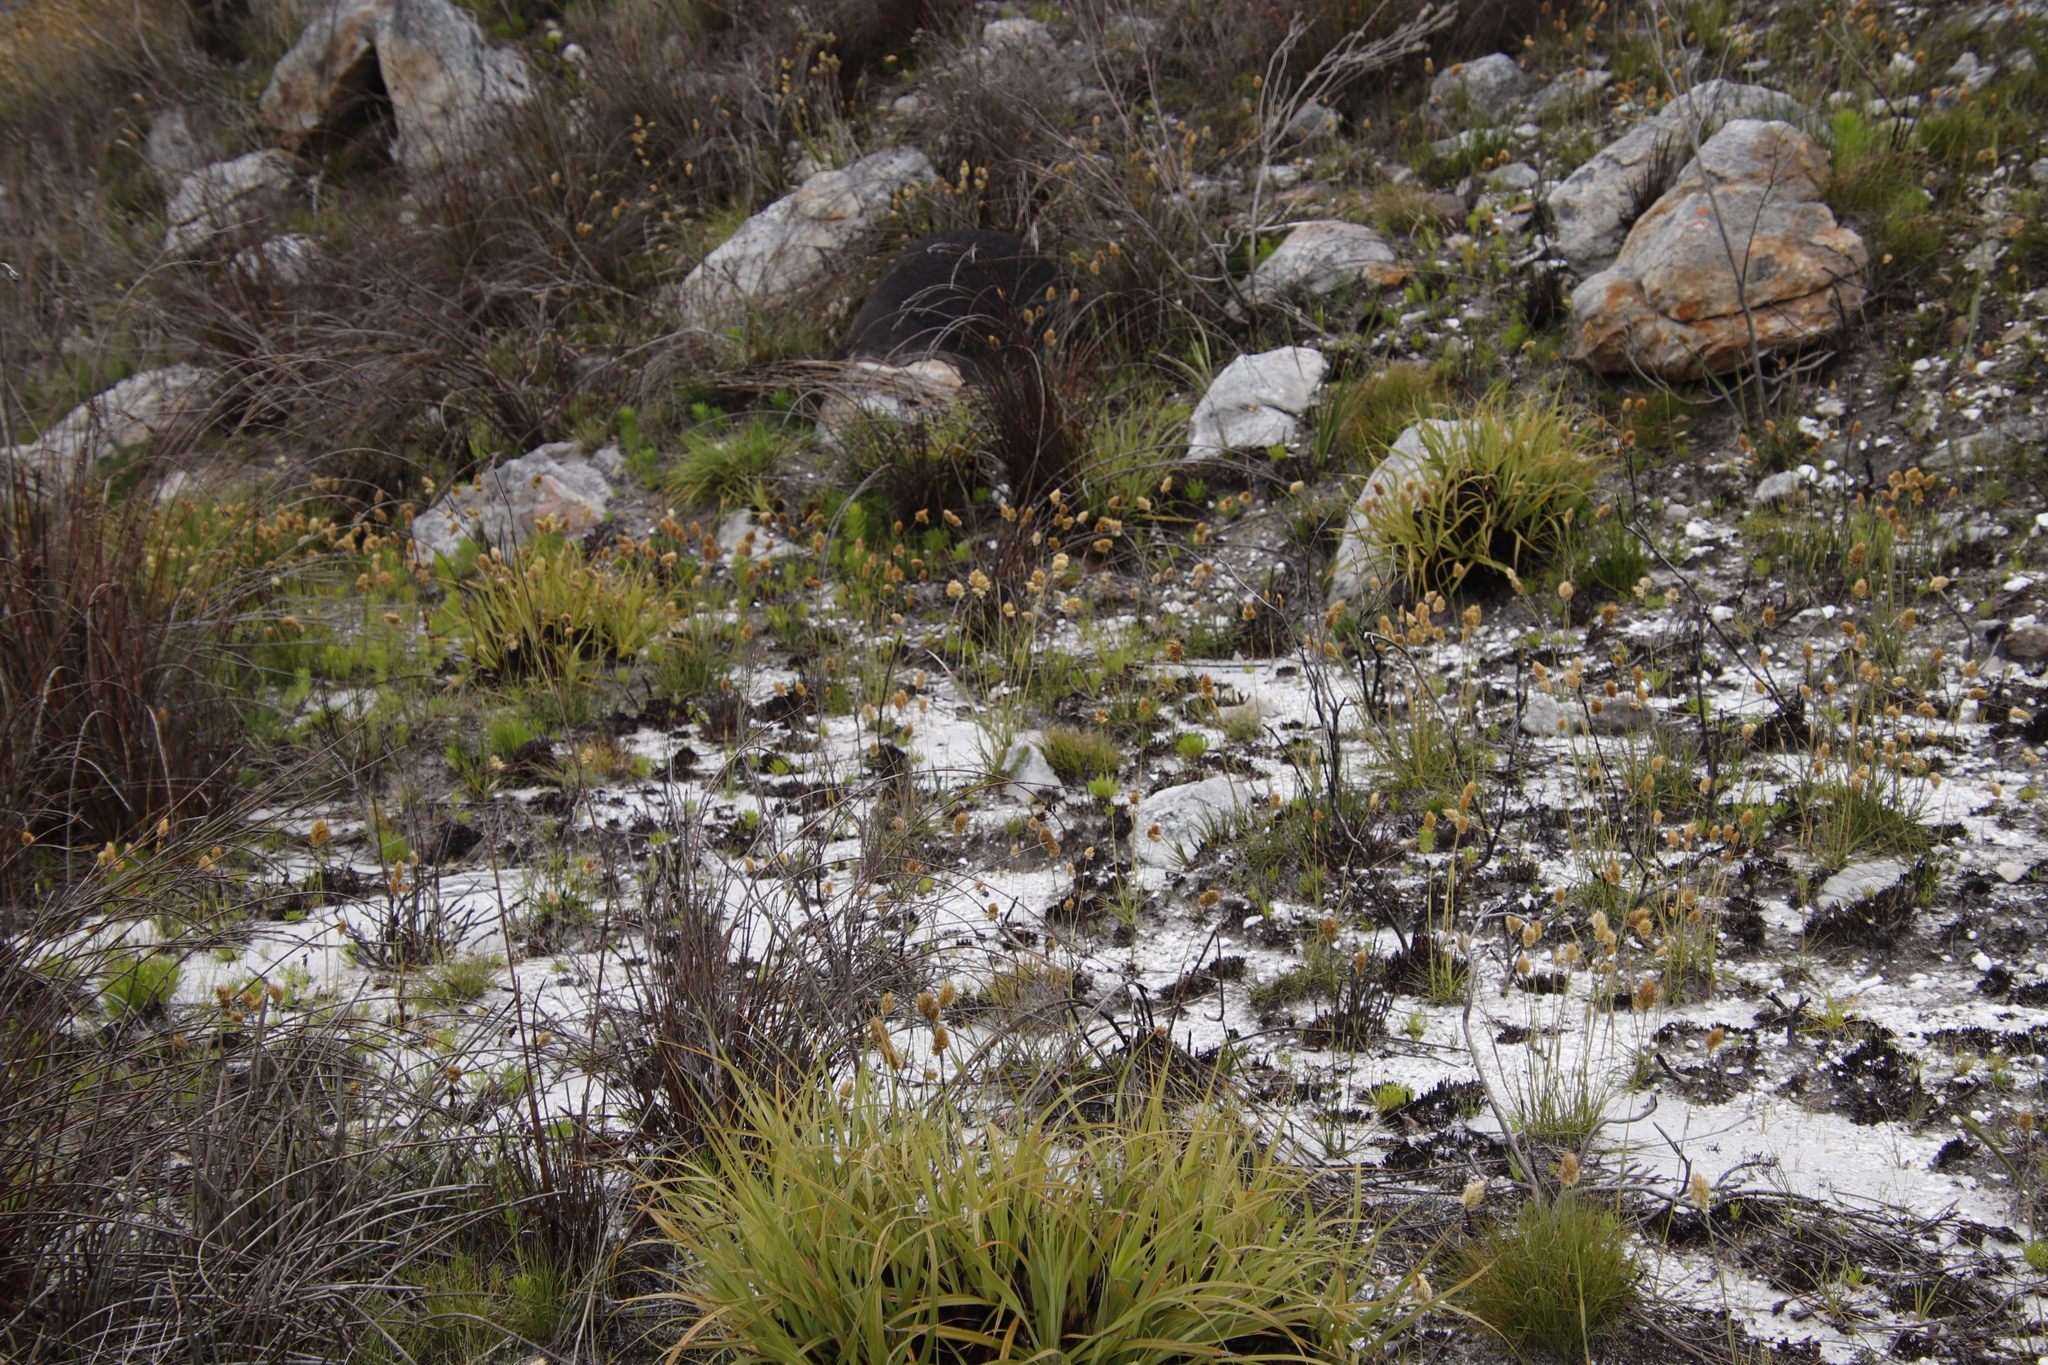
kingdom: Plantae
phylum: Tracheophyta
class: Liliopsida
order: Poales
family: Poaceae
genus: Geochloa
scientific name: Geochloa rufa
